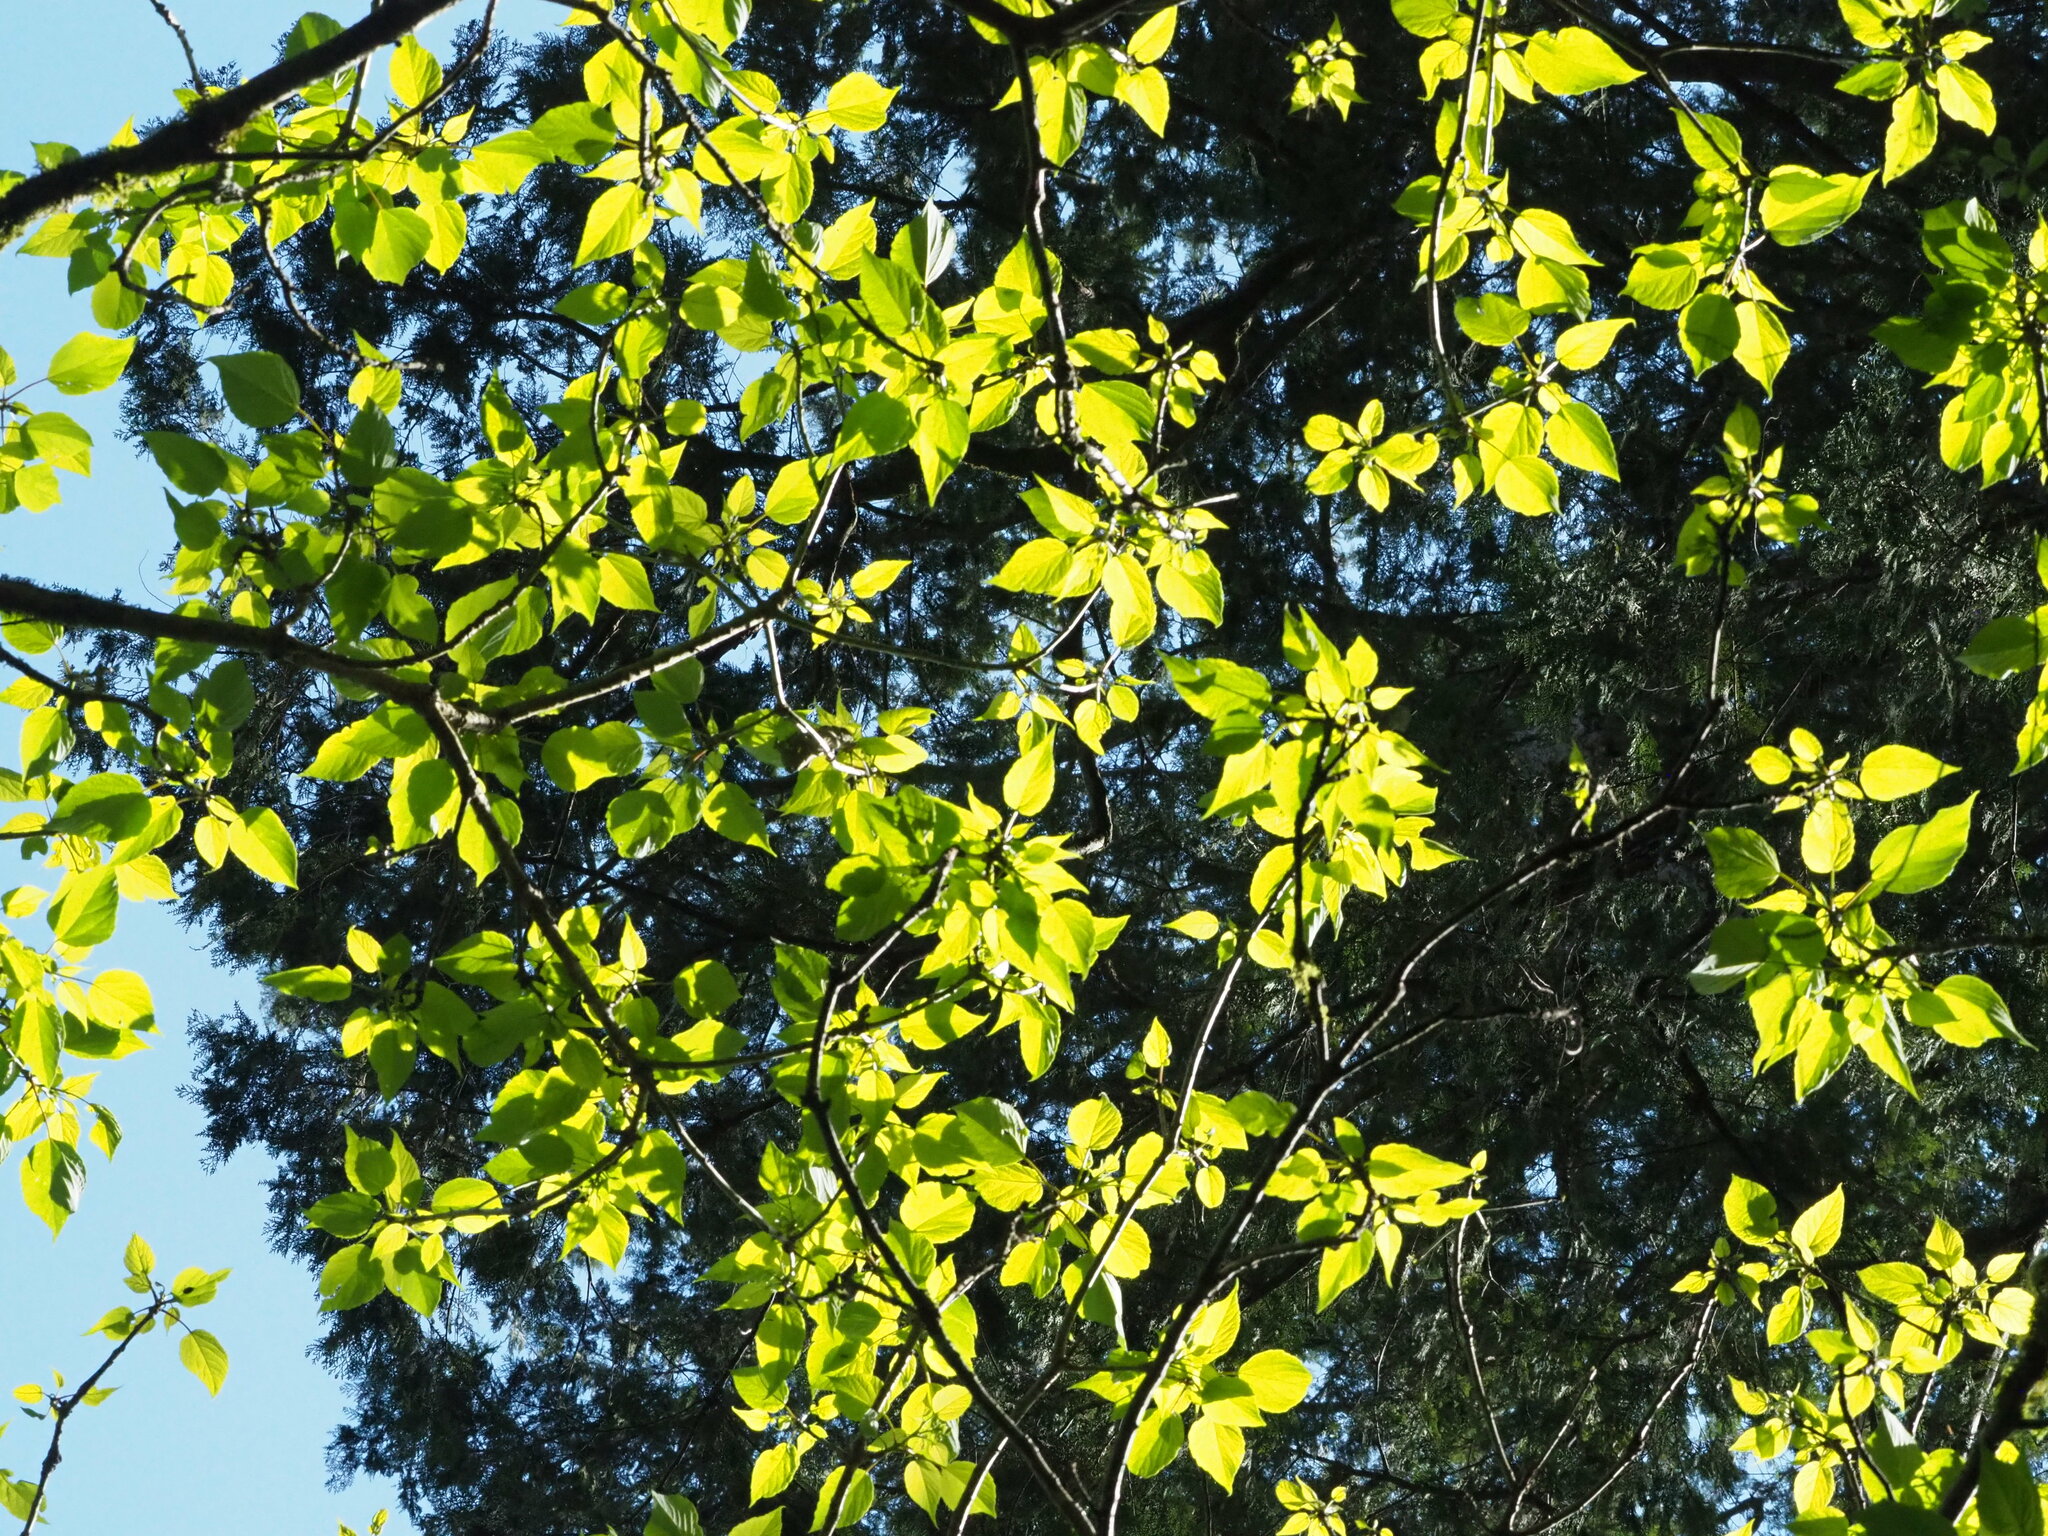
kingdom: Plantae
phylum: Tracheophyta
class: Magnoliopsida
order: Malpighiales
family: Salicaceae
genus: Idesia
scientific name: Idesia polycarpa
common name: Idesia tree
